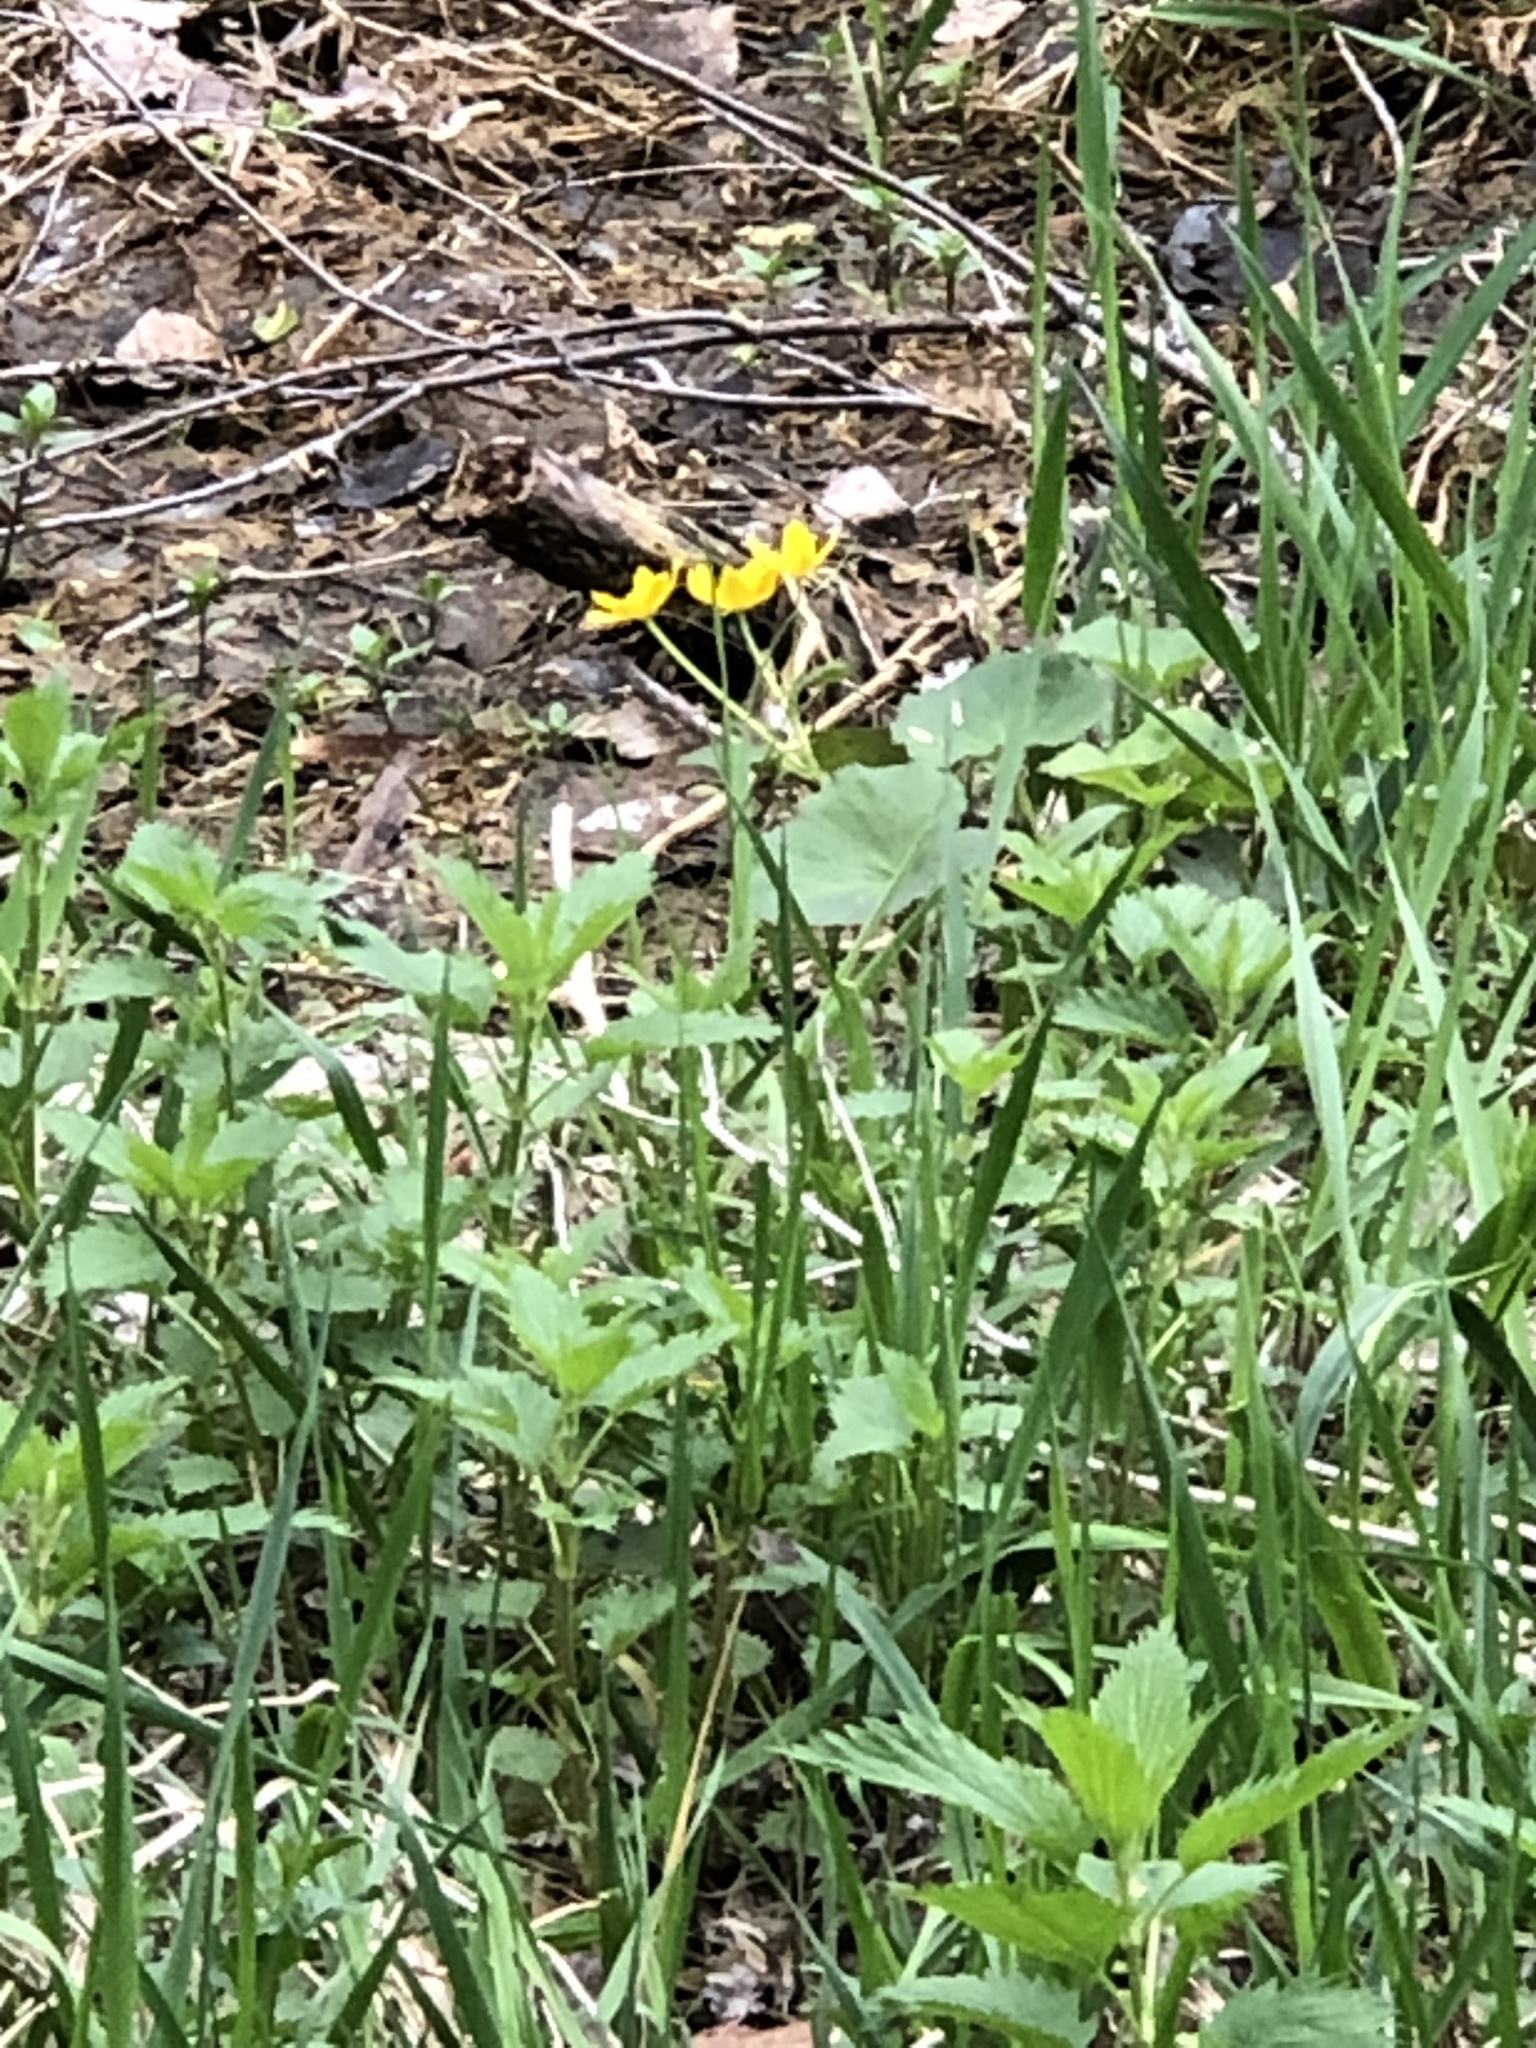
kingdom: Plantae
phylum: Tracheophyta
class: Magnoliopsida
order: Ranunculales
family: Ranunculaceae
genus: Caltha
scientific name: Caltha palustris
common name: Marsh marigold
